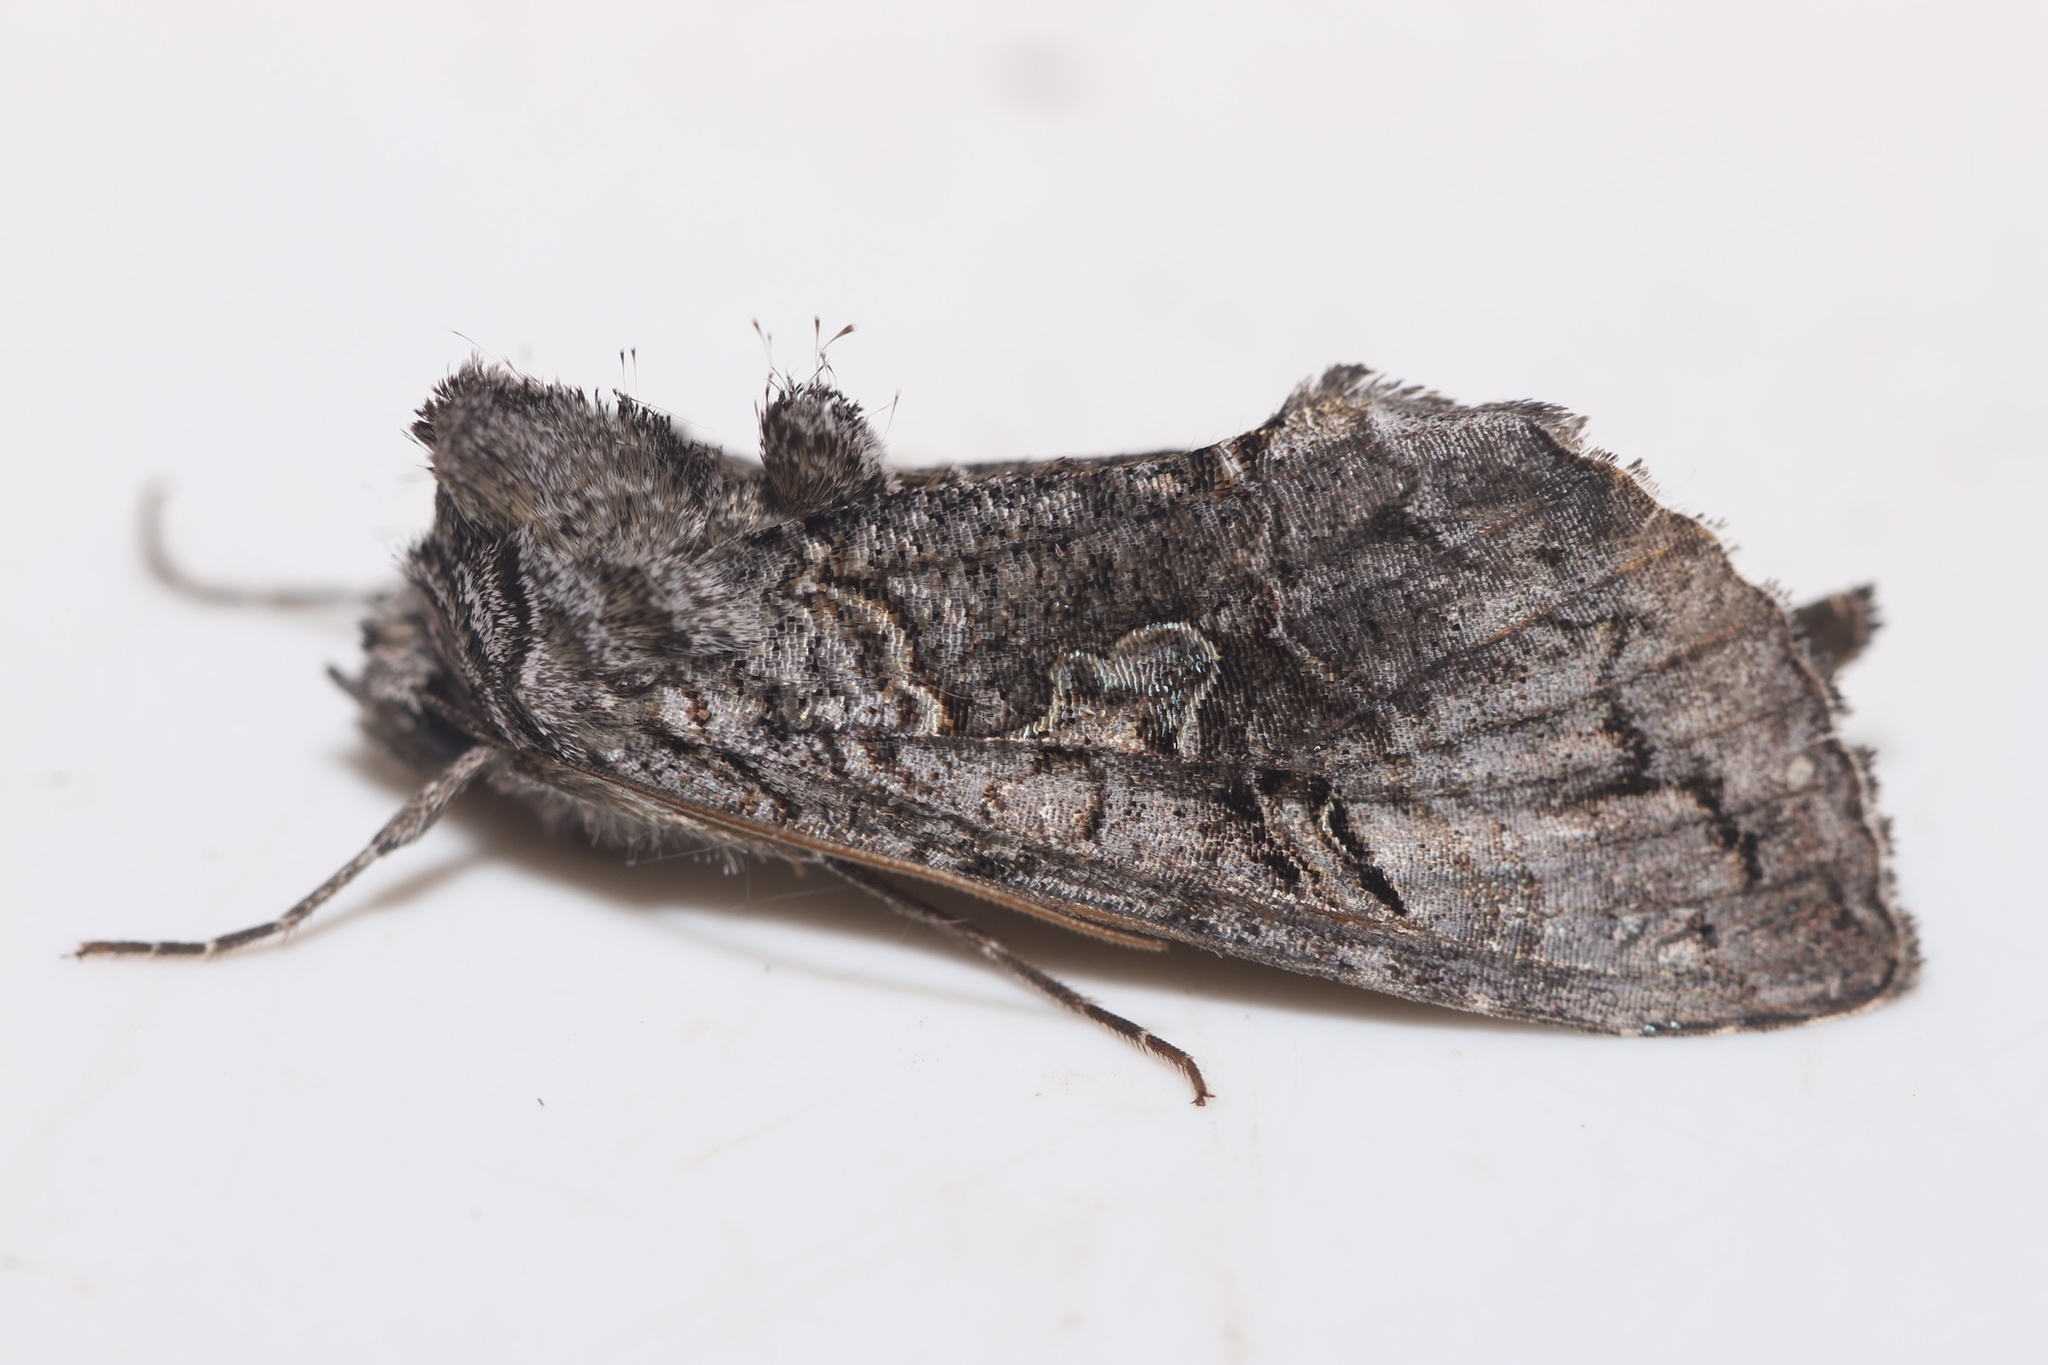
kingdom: Animalia
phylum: Arthropoda
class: Insecta
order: Lepidoptera
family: Noctuidae
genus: Syngrapha
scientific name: Syngrapha viridisigma
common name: Spruce false looper moth
